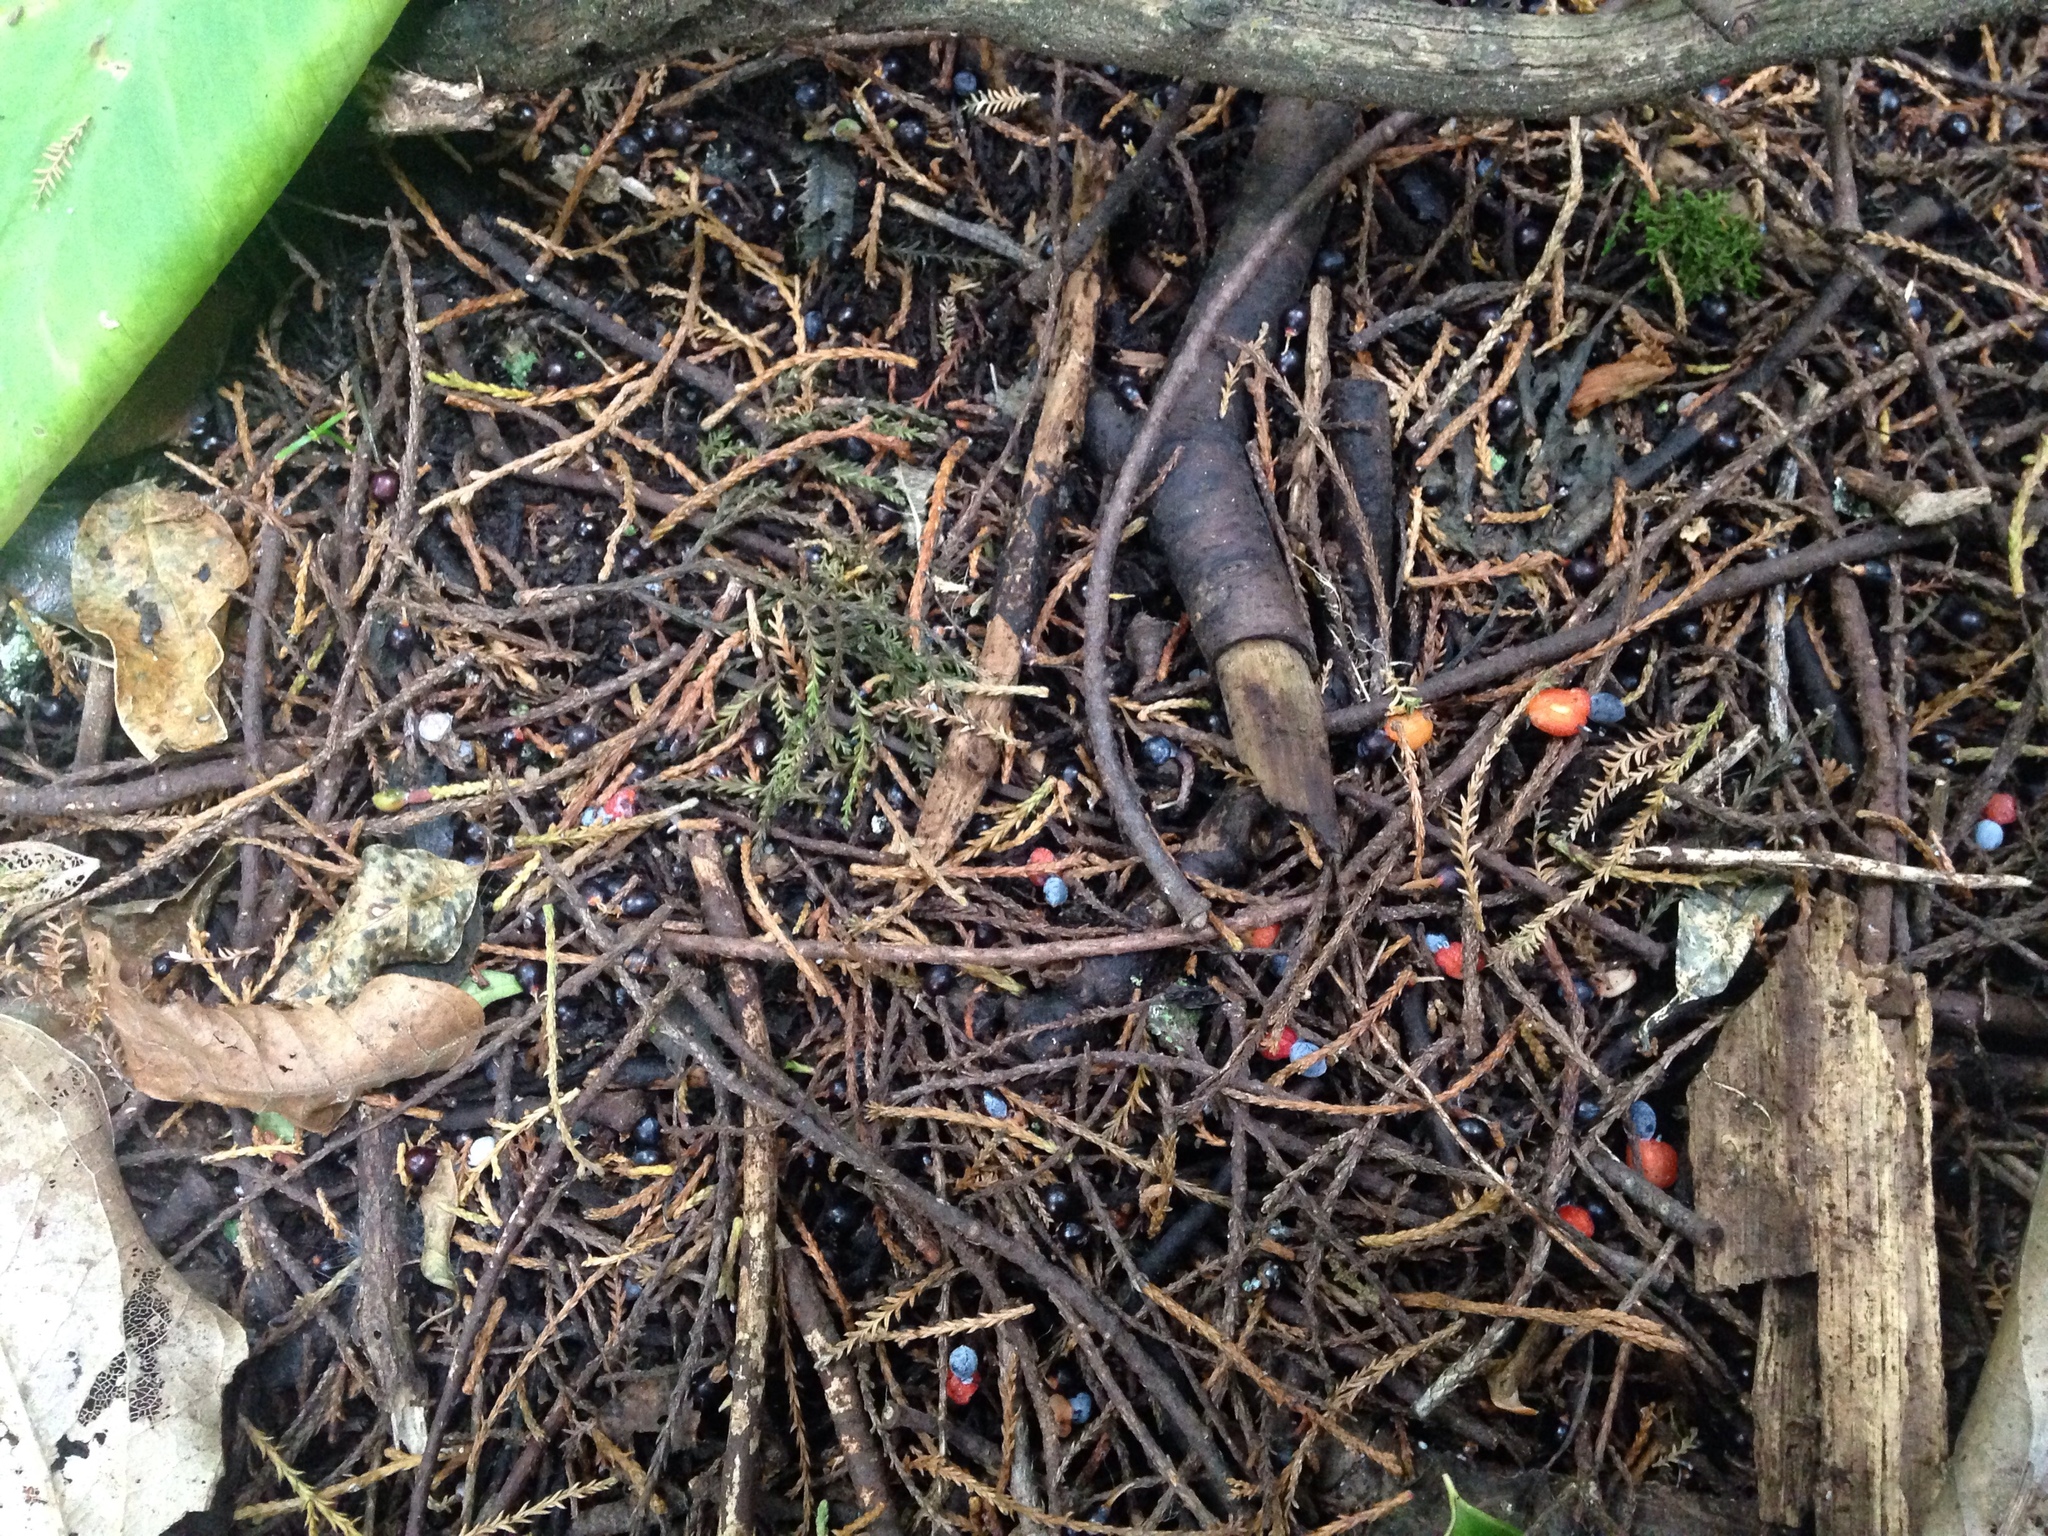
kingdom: Plantae
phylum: Tracheophyta
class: Pinopsida
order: Pinales
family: Podocarpaceae
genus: Dacrycarpus
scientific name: Dacrycarpus dacrydioides
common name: White pine
